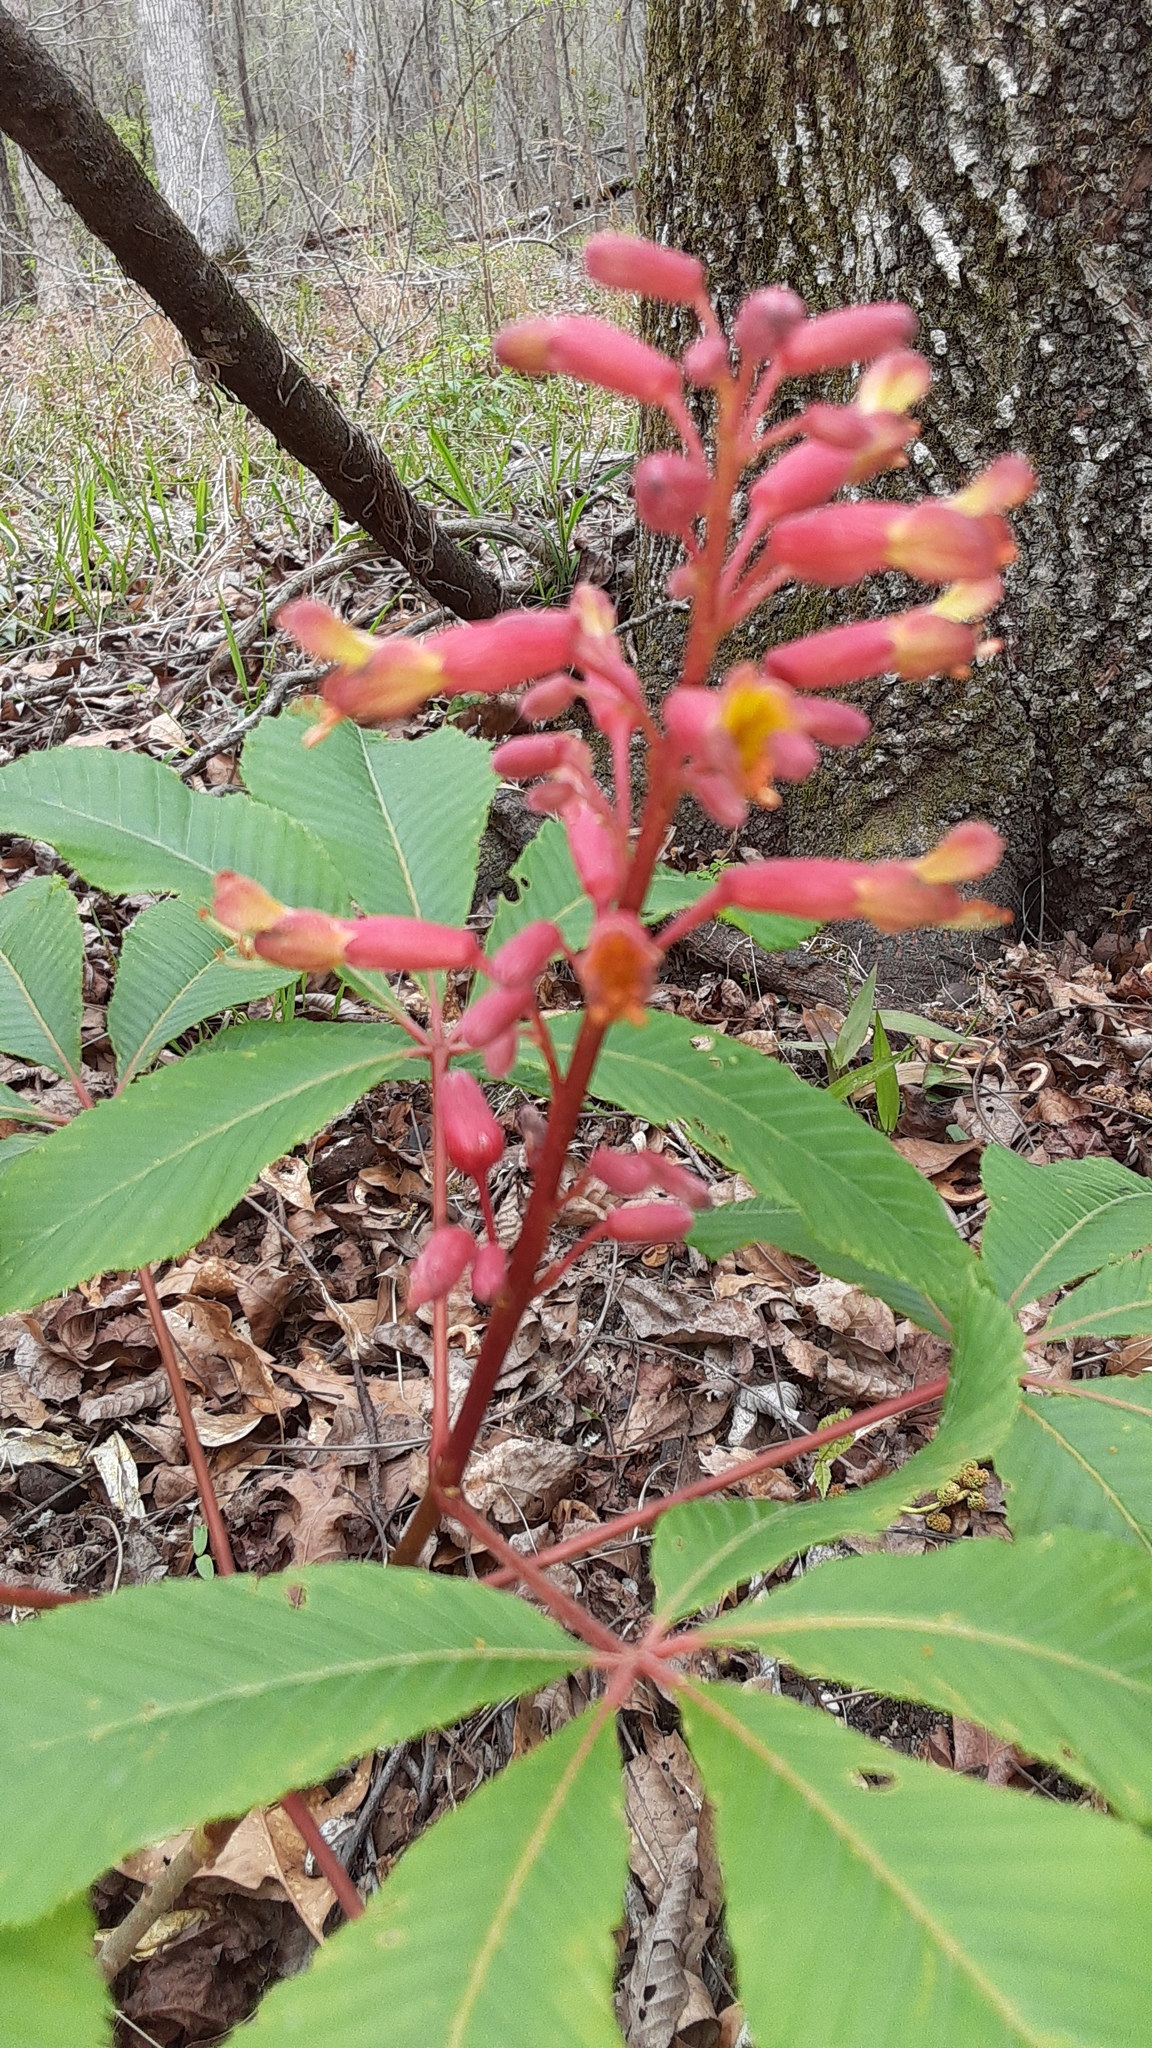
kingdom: Plantae
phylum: Tracheophyta
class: Magnoliopsida
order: Sapindales
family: Sapindaceae
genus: Aesculus
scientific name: Aesculus pavia
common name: Red buckeye
